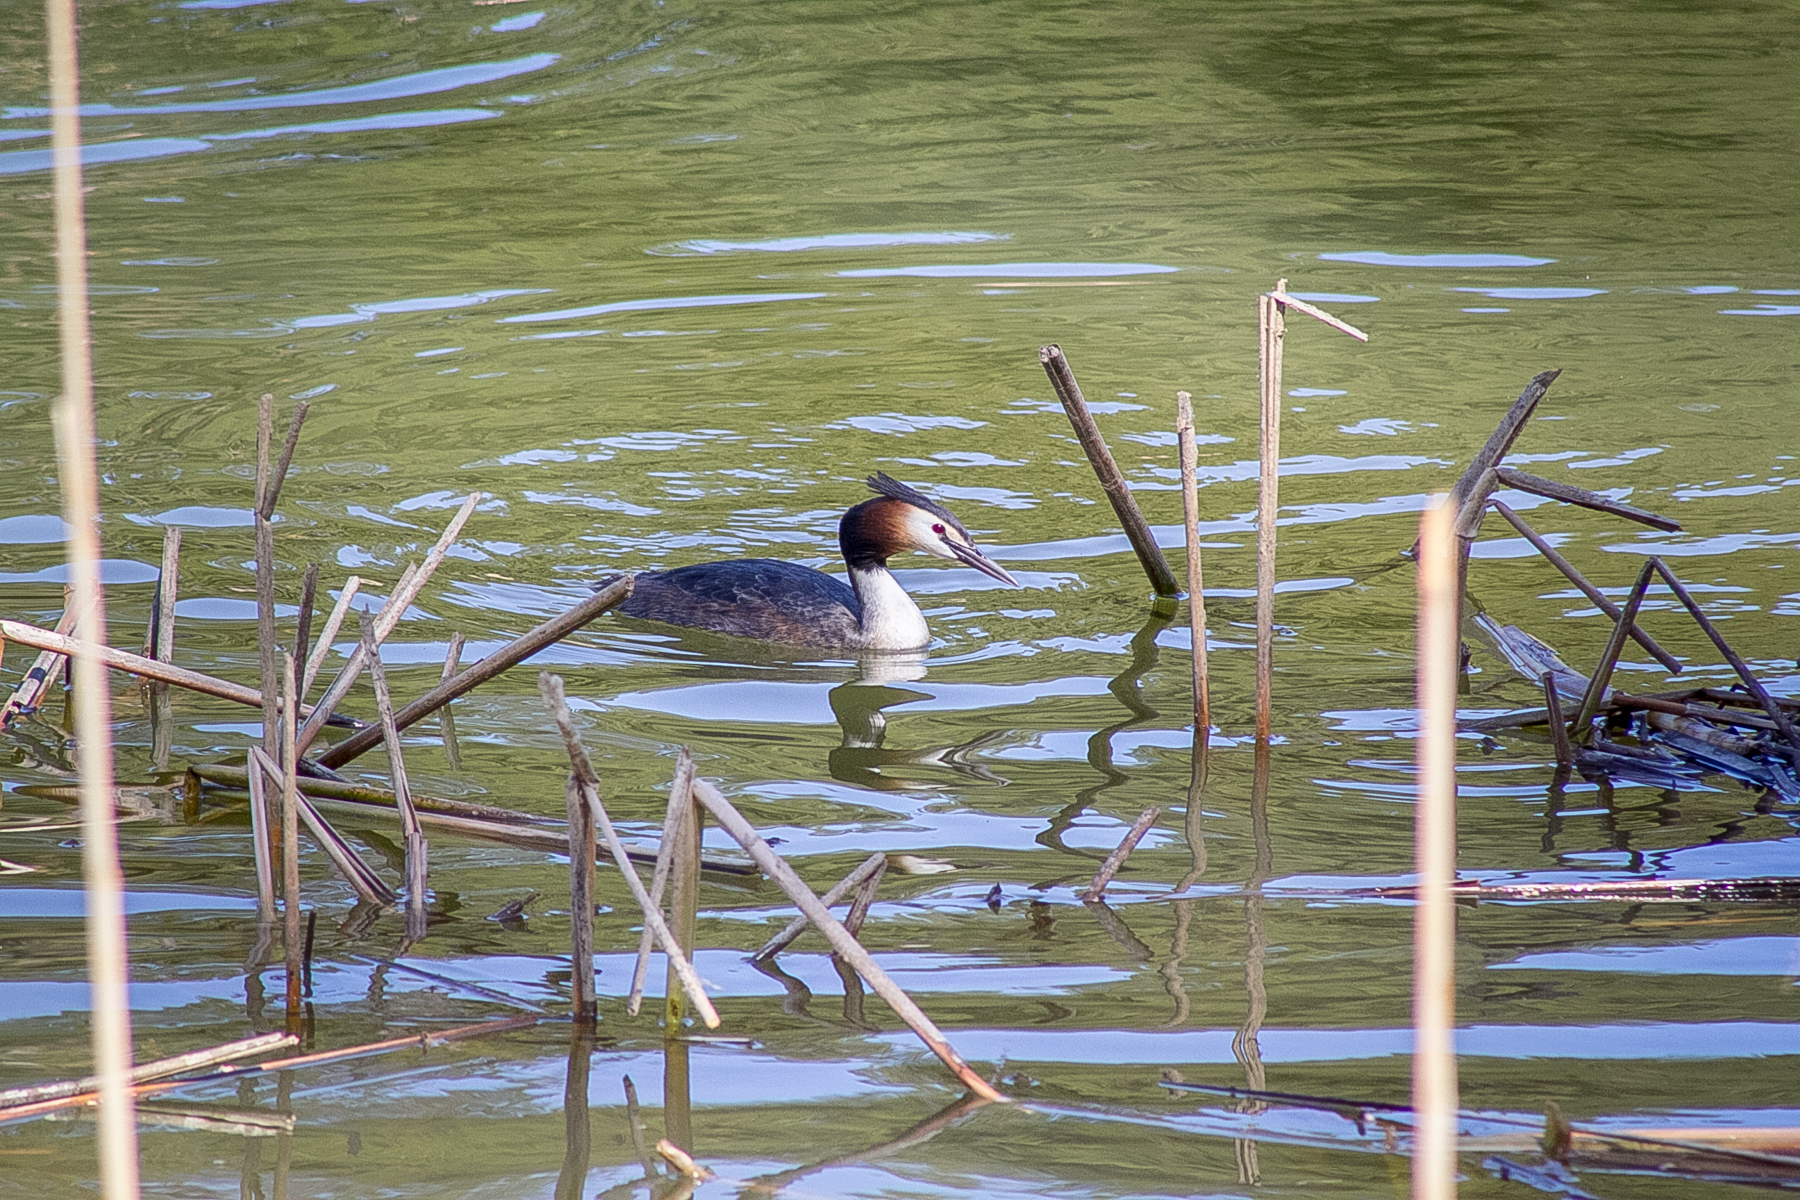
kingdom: Animalia
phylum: Chordata
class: Aves
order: Podicipediformes
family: Podicipedidae
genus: Podiceps
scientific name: Podiceps cristatus
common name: Great crested grebe
